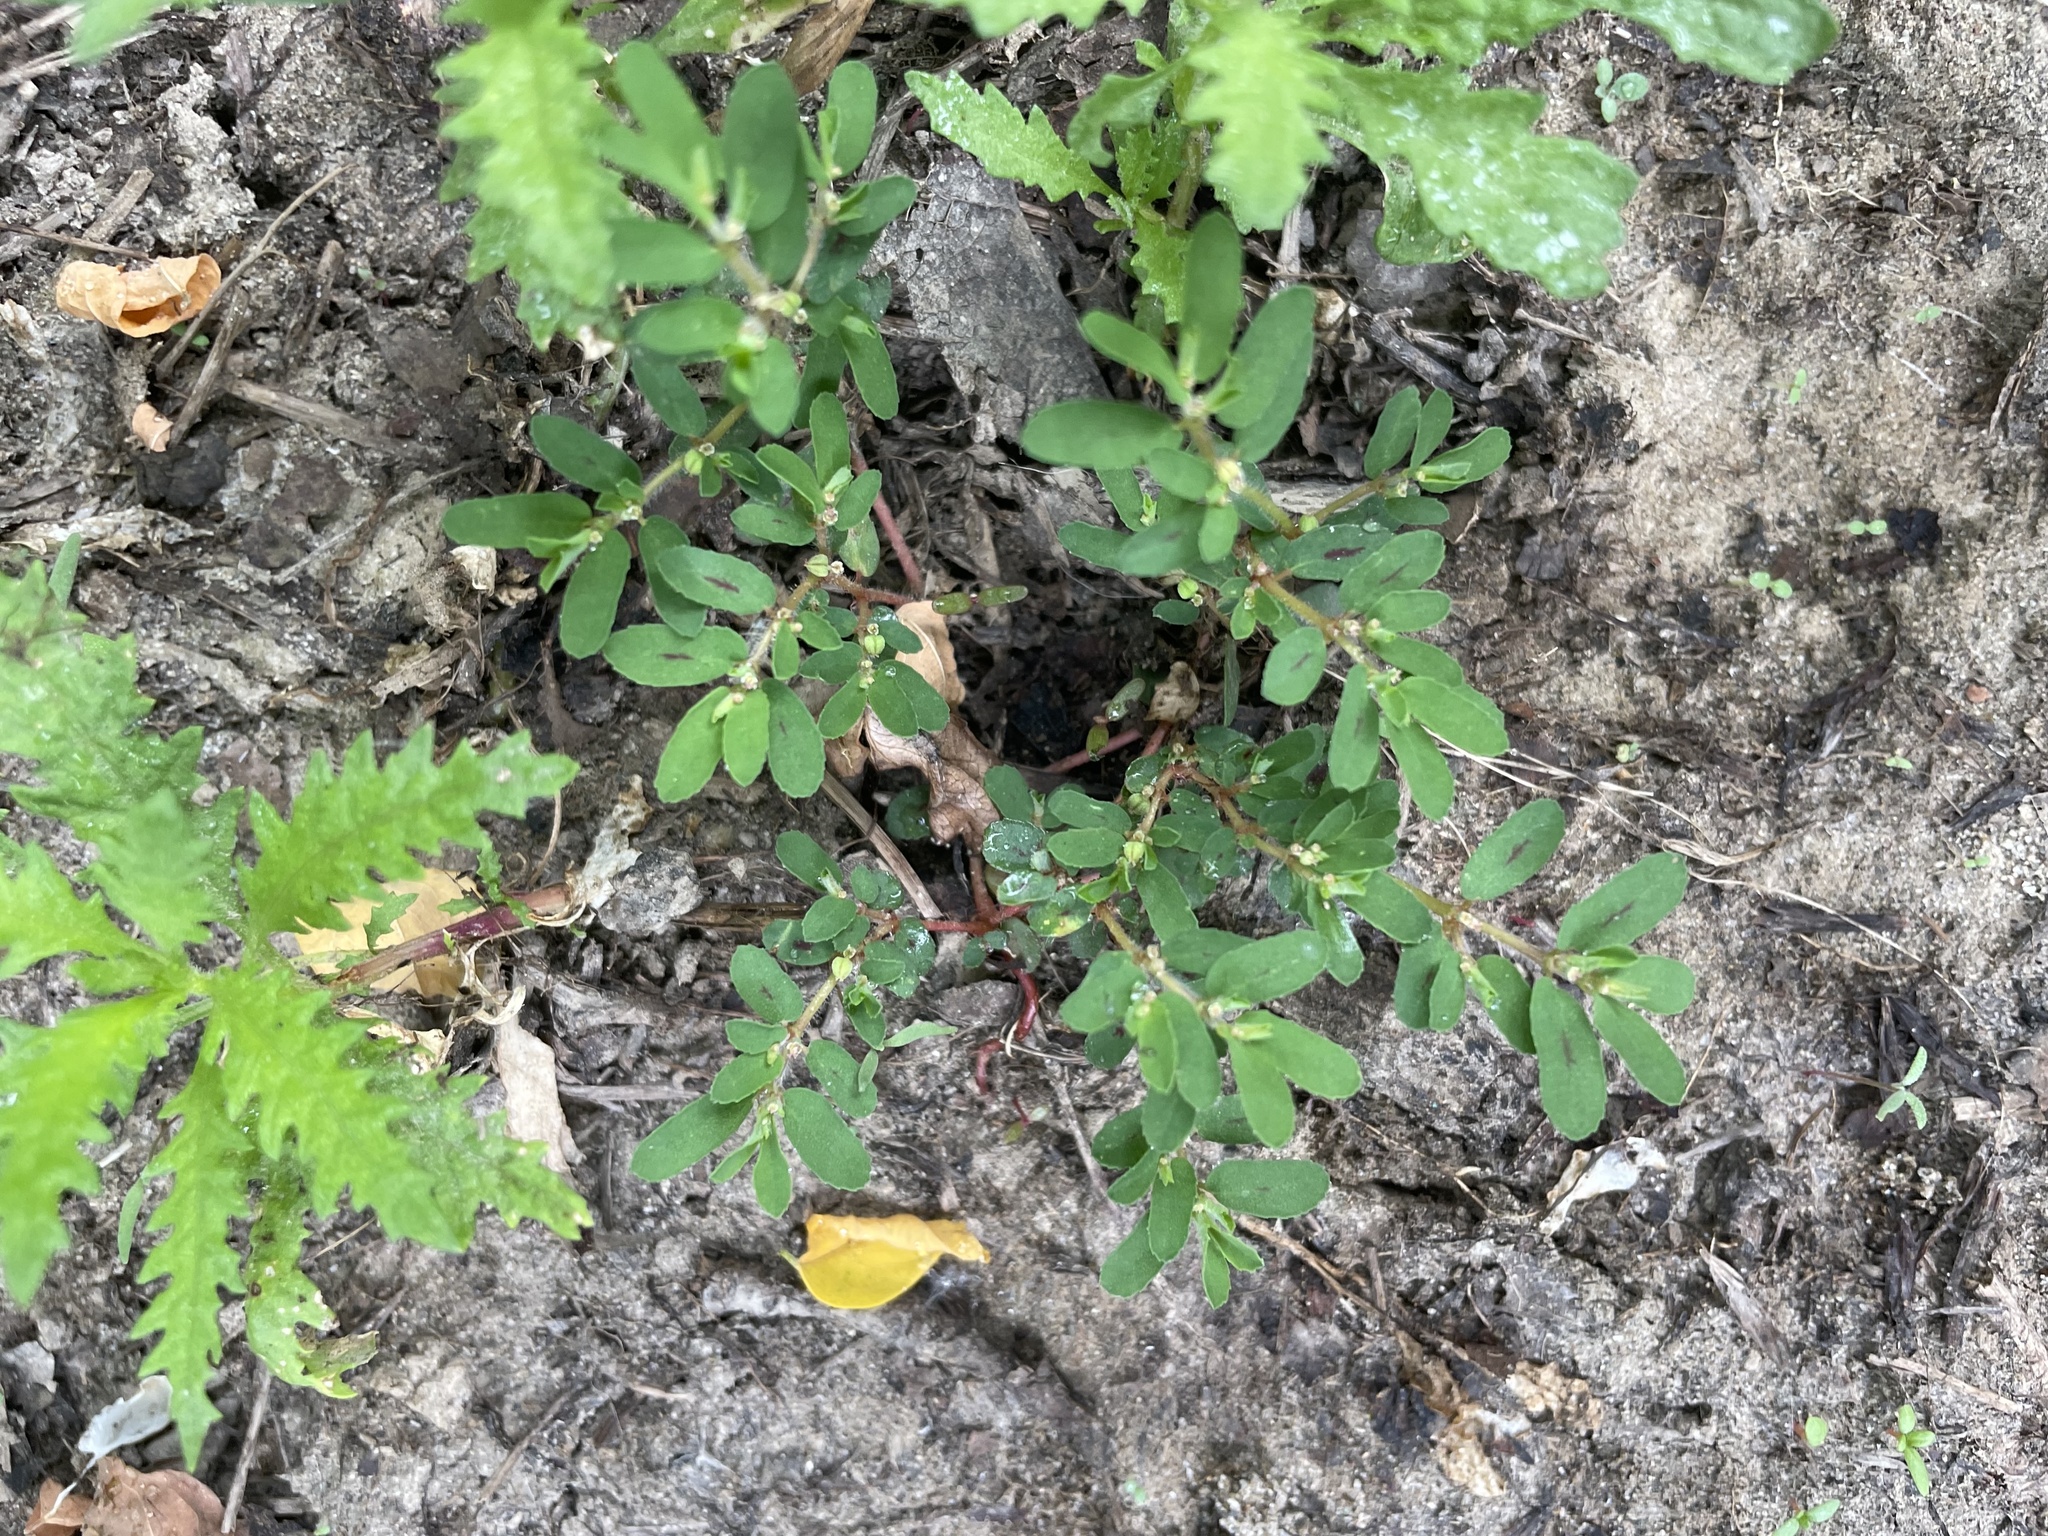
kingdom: Plantae
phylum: Tracheophyta
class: Magnoliopsida
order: Malpighiales
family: Euphorbiaceae
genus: Euphorbia
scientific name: Euphorbia maculata
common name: Spotted spurge
